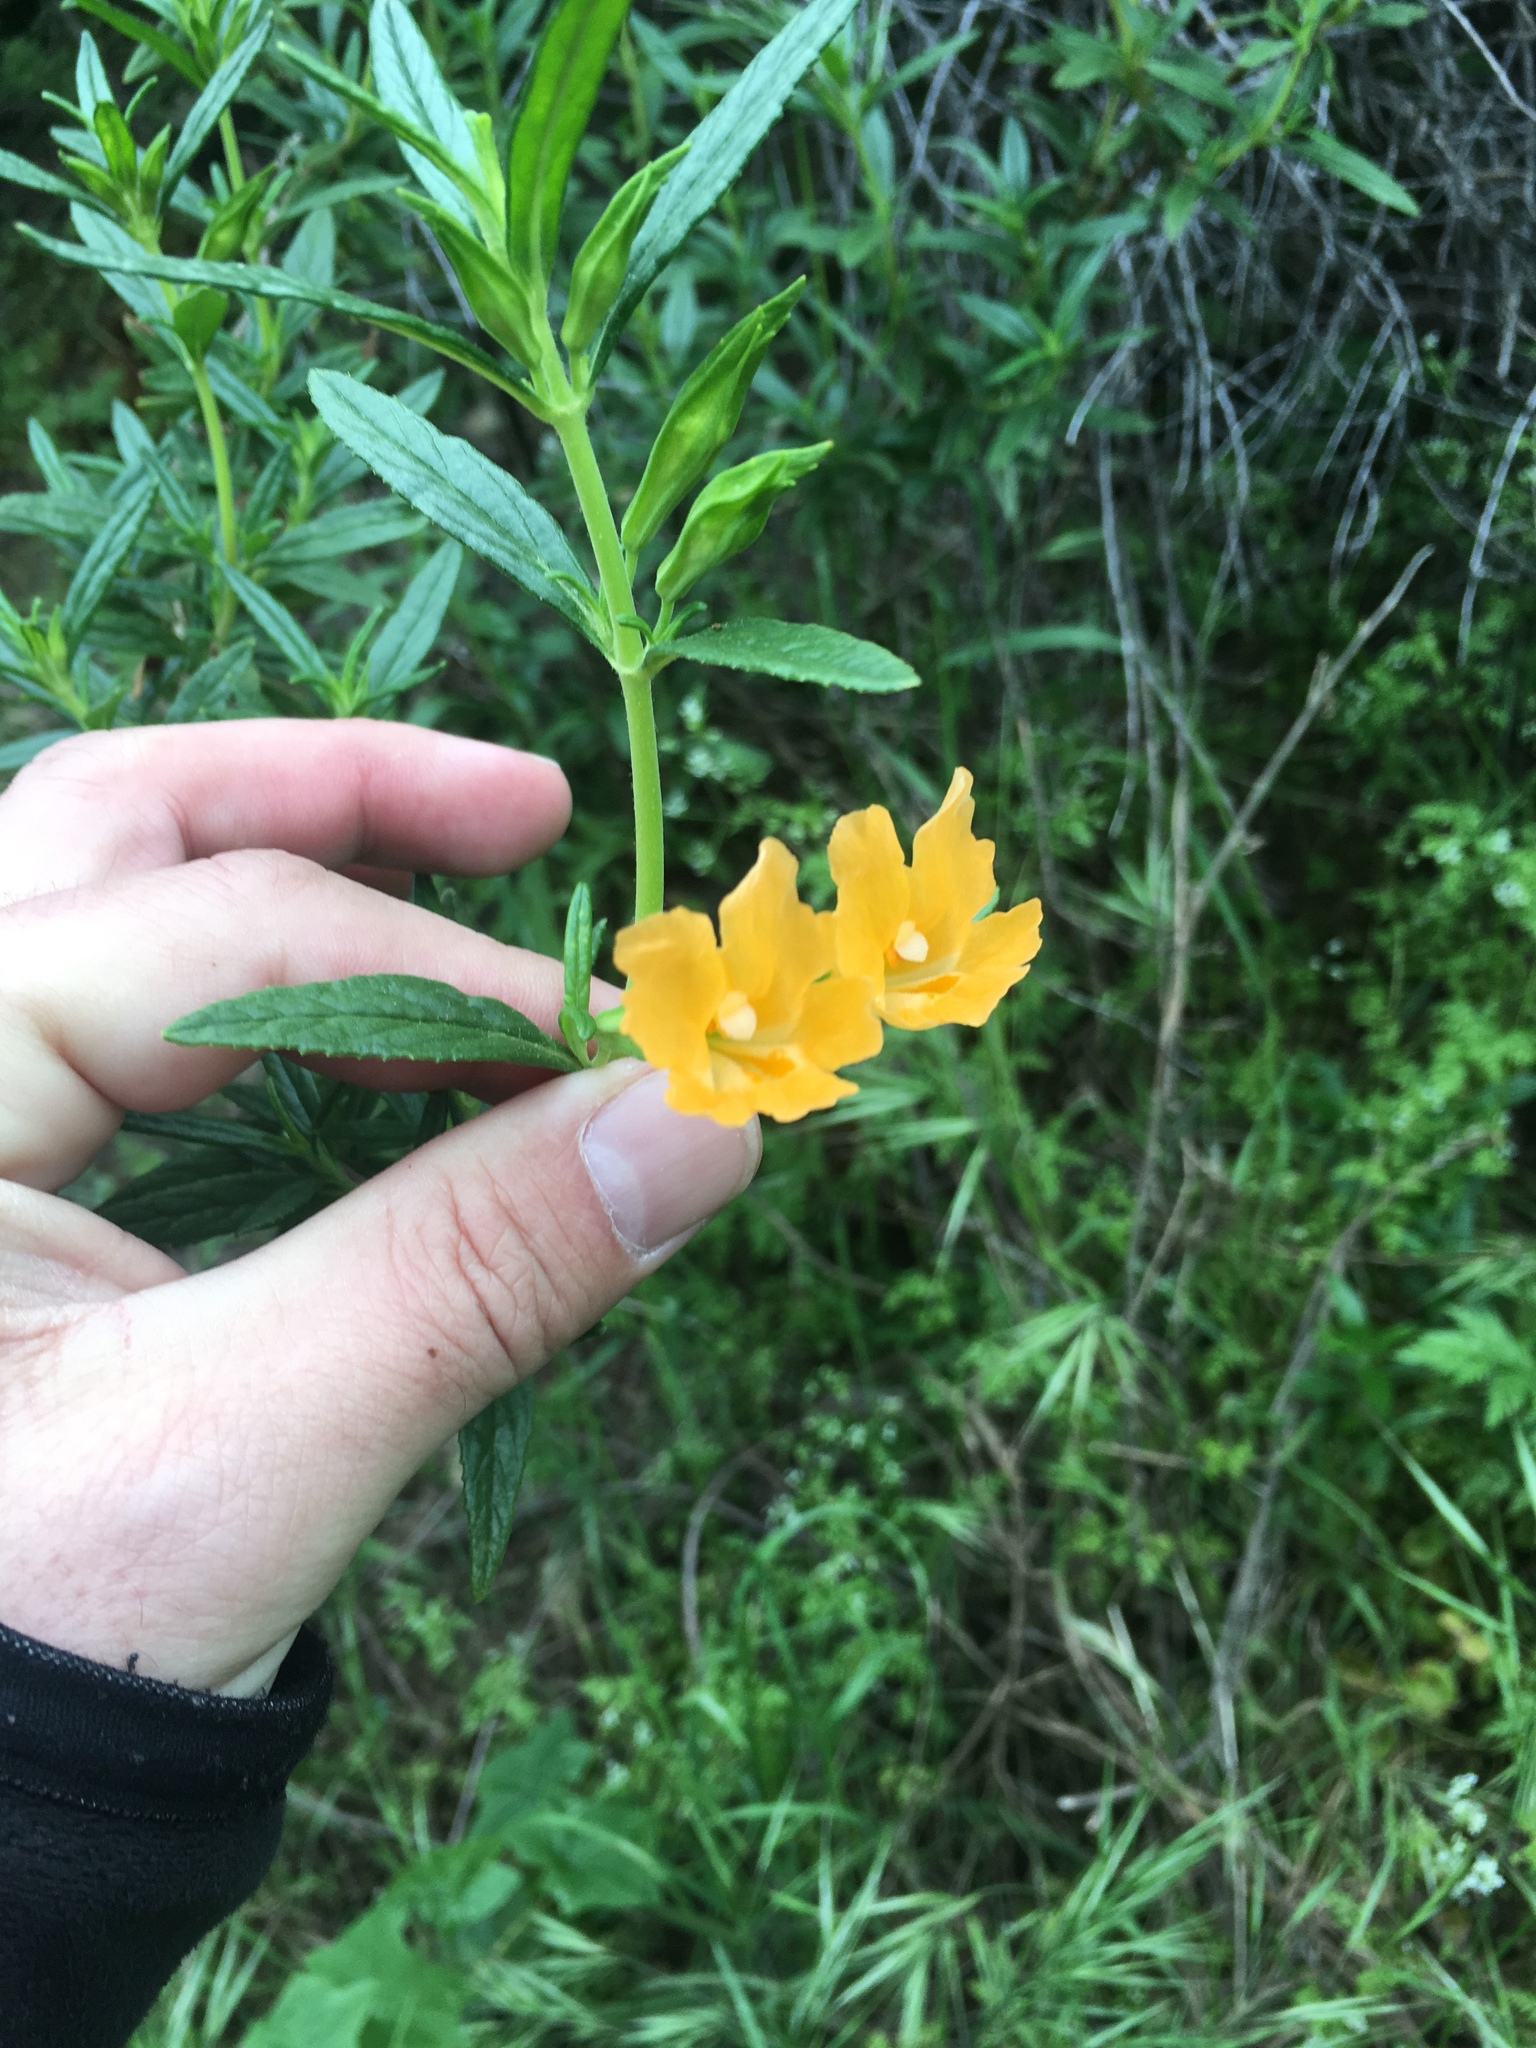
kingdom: Plantae
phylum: Tracheophyta
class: Magnoliopsida
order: Lamiales
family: Phrymaceae
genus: Diplacus
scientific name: Diplacus aurantiacus
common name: Bush monkey-flower
